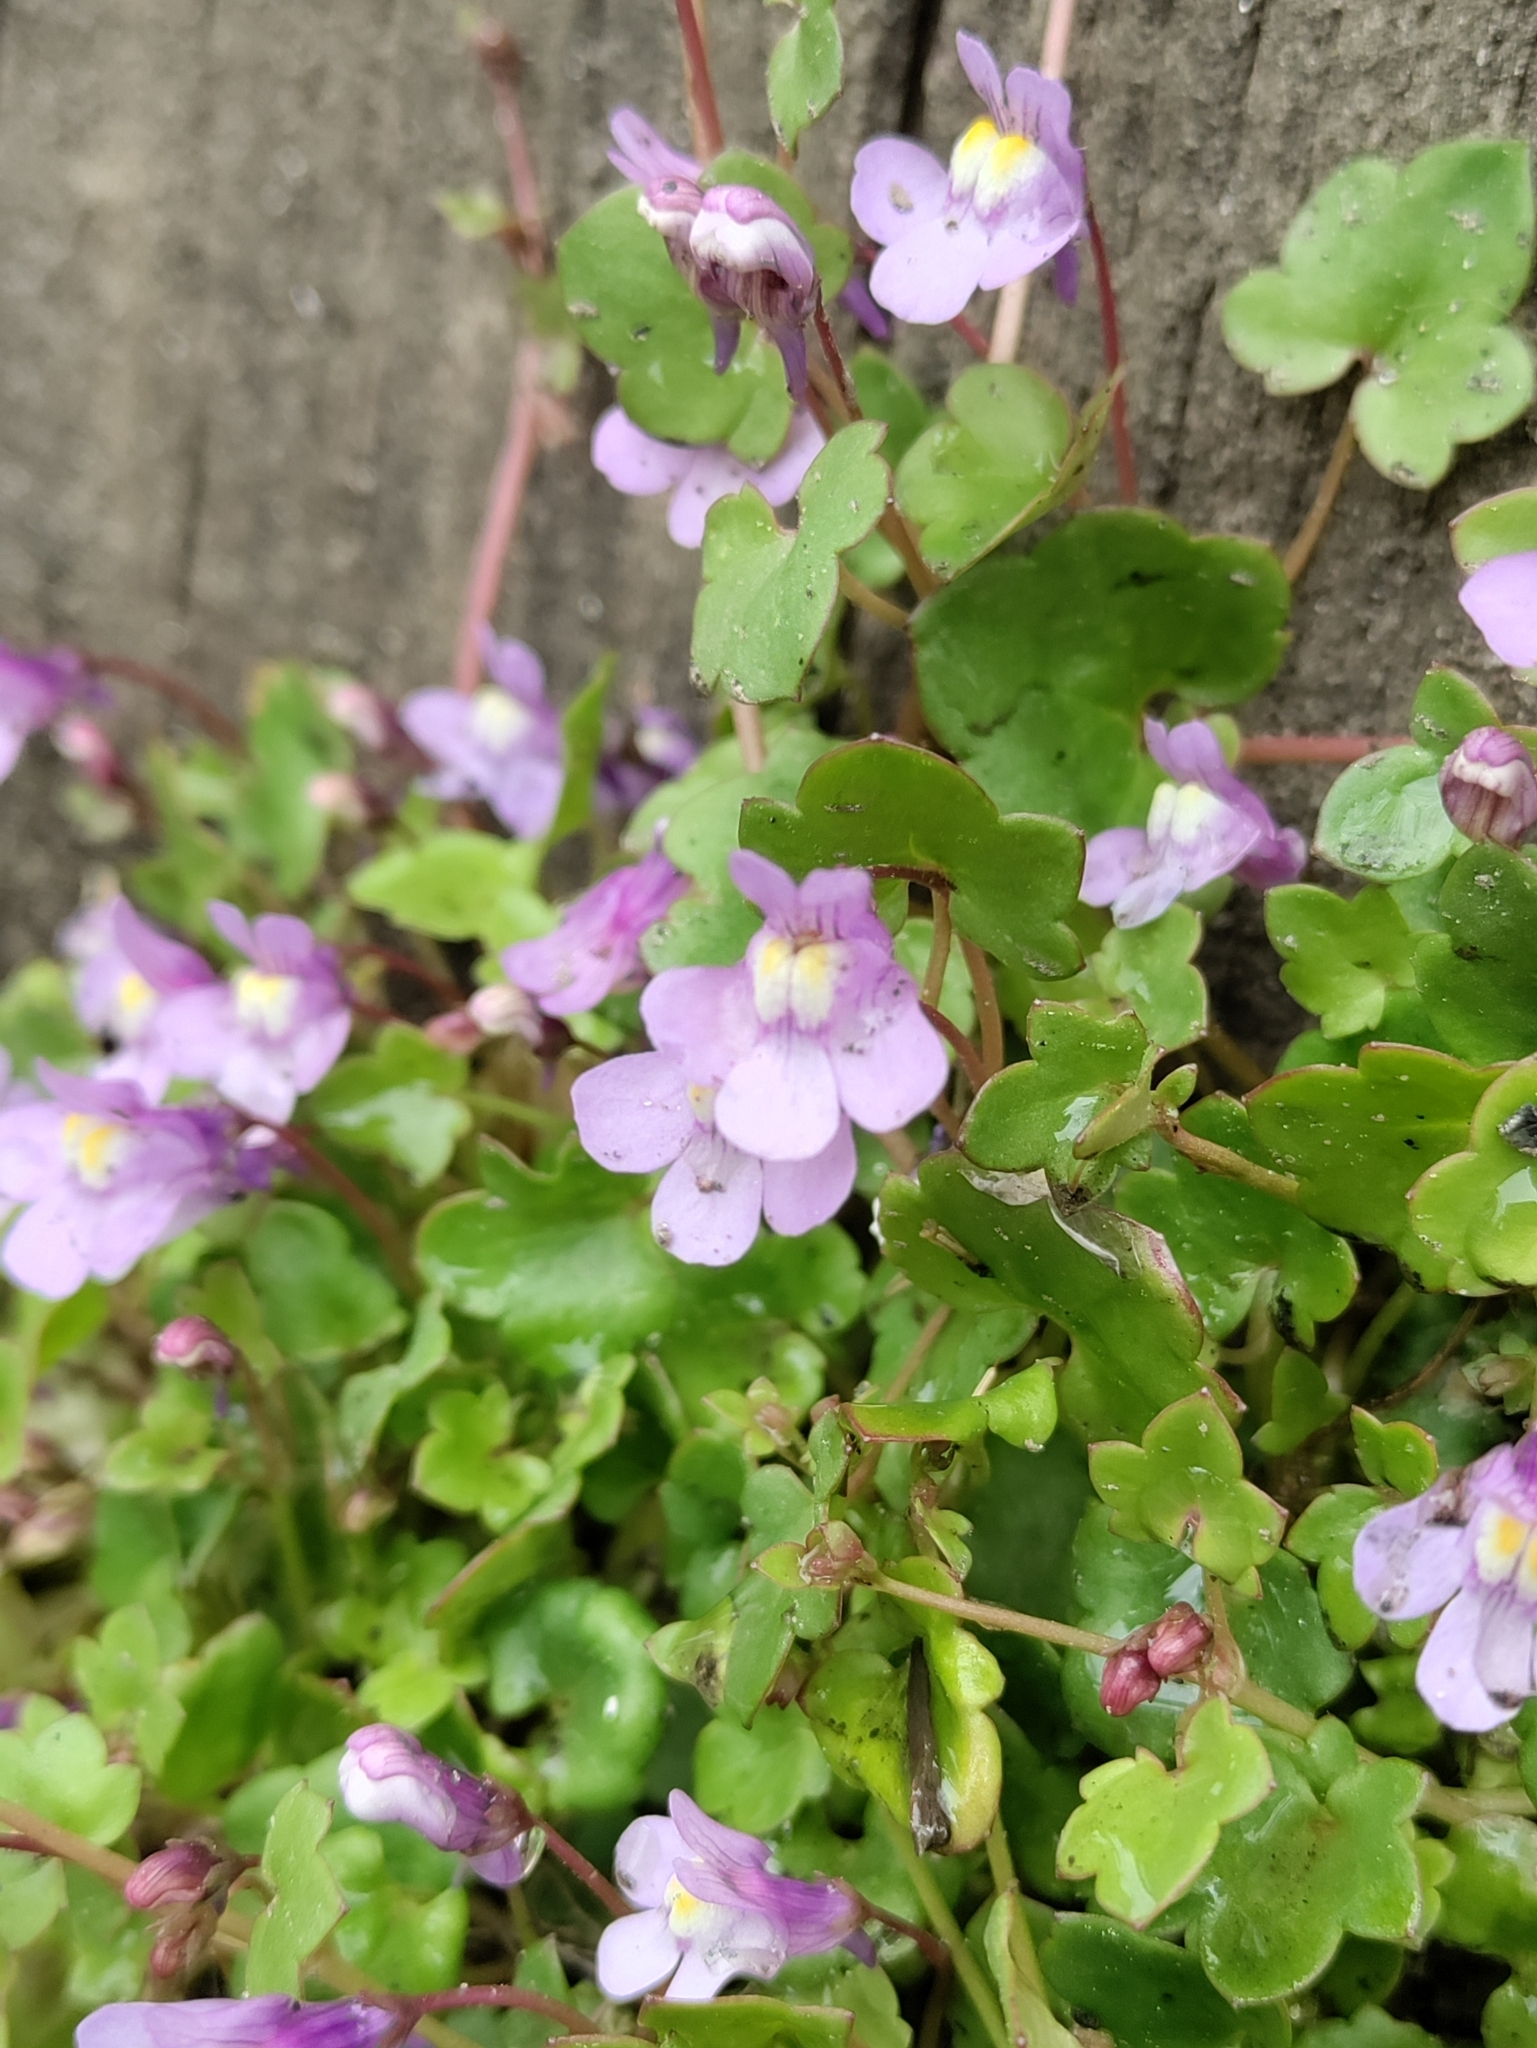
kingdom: Plantae
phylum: Tracheophyta
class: Magnoliopsida
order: Lamiales
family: Plantaginaceae
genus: Cymbalaria
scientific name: Cymbalaria muralis
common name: Ivy-leaved toadflax
